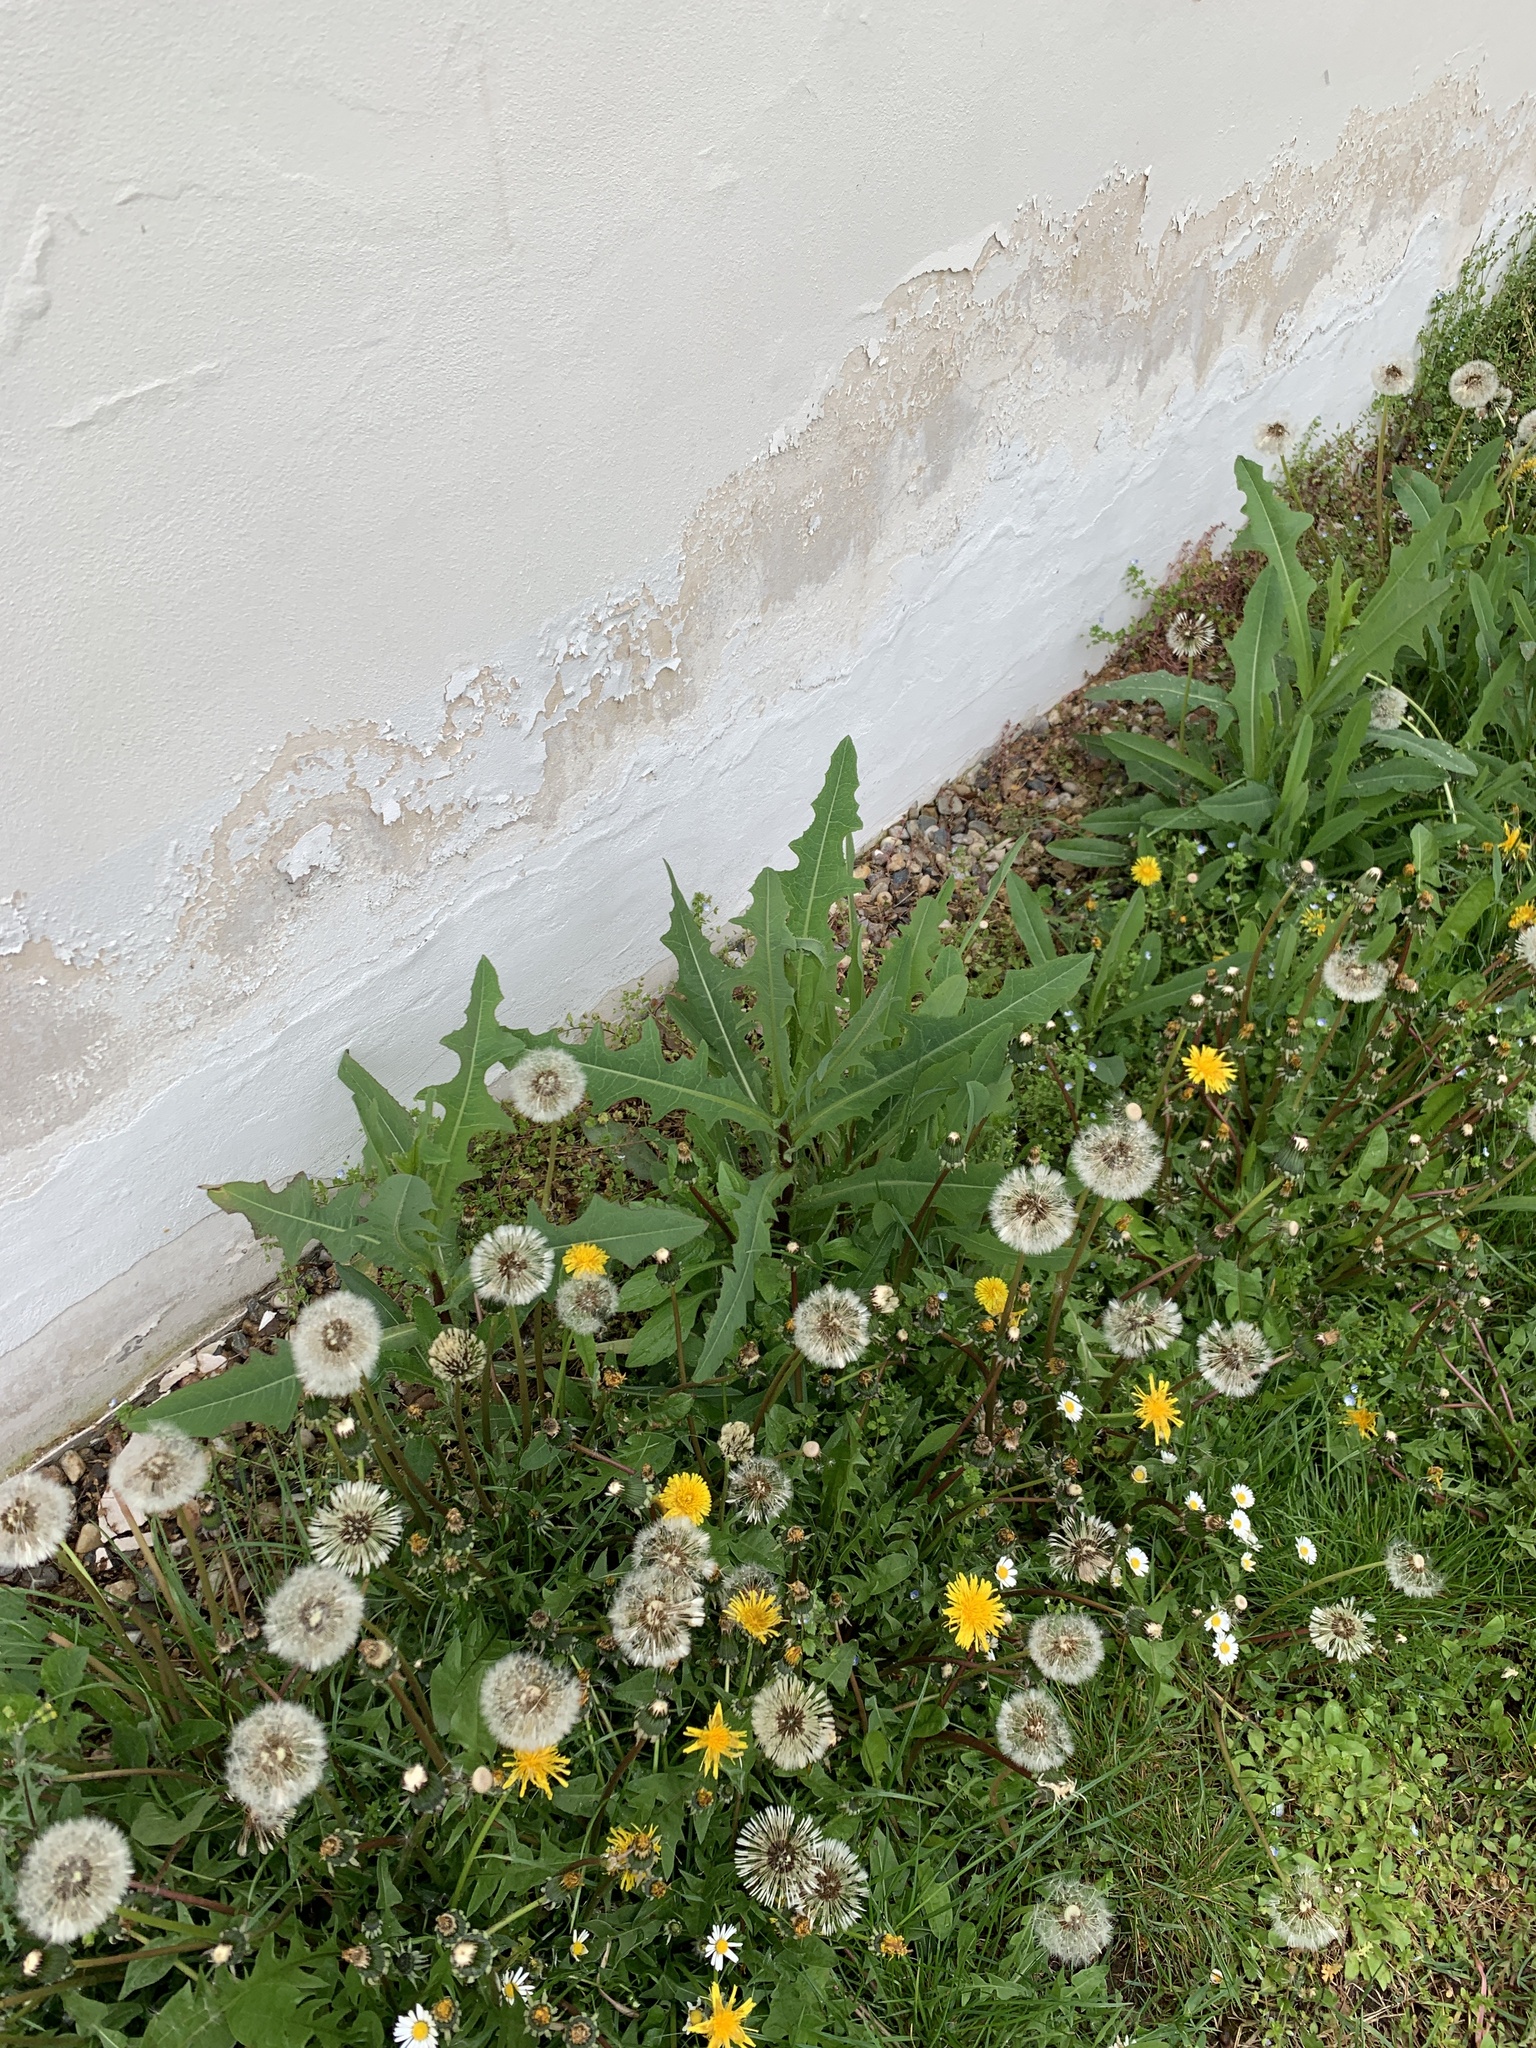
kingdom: Plantae
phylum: Tracheophyta
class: Magnoliopsida
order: Asterales
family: Asteraceae
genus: Lactuca
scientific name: Lactuca serriola
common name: Prickly lettuce
